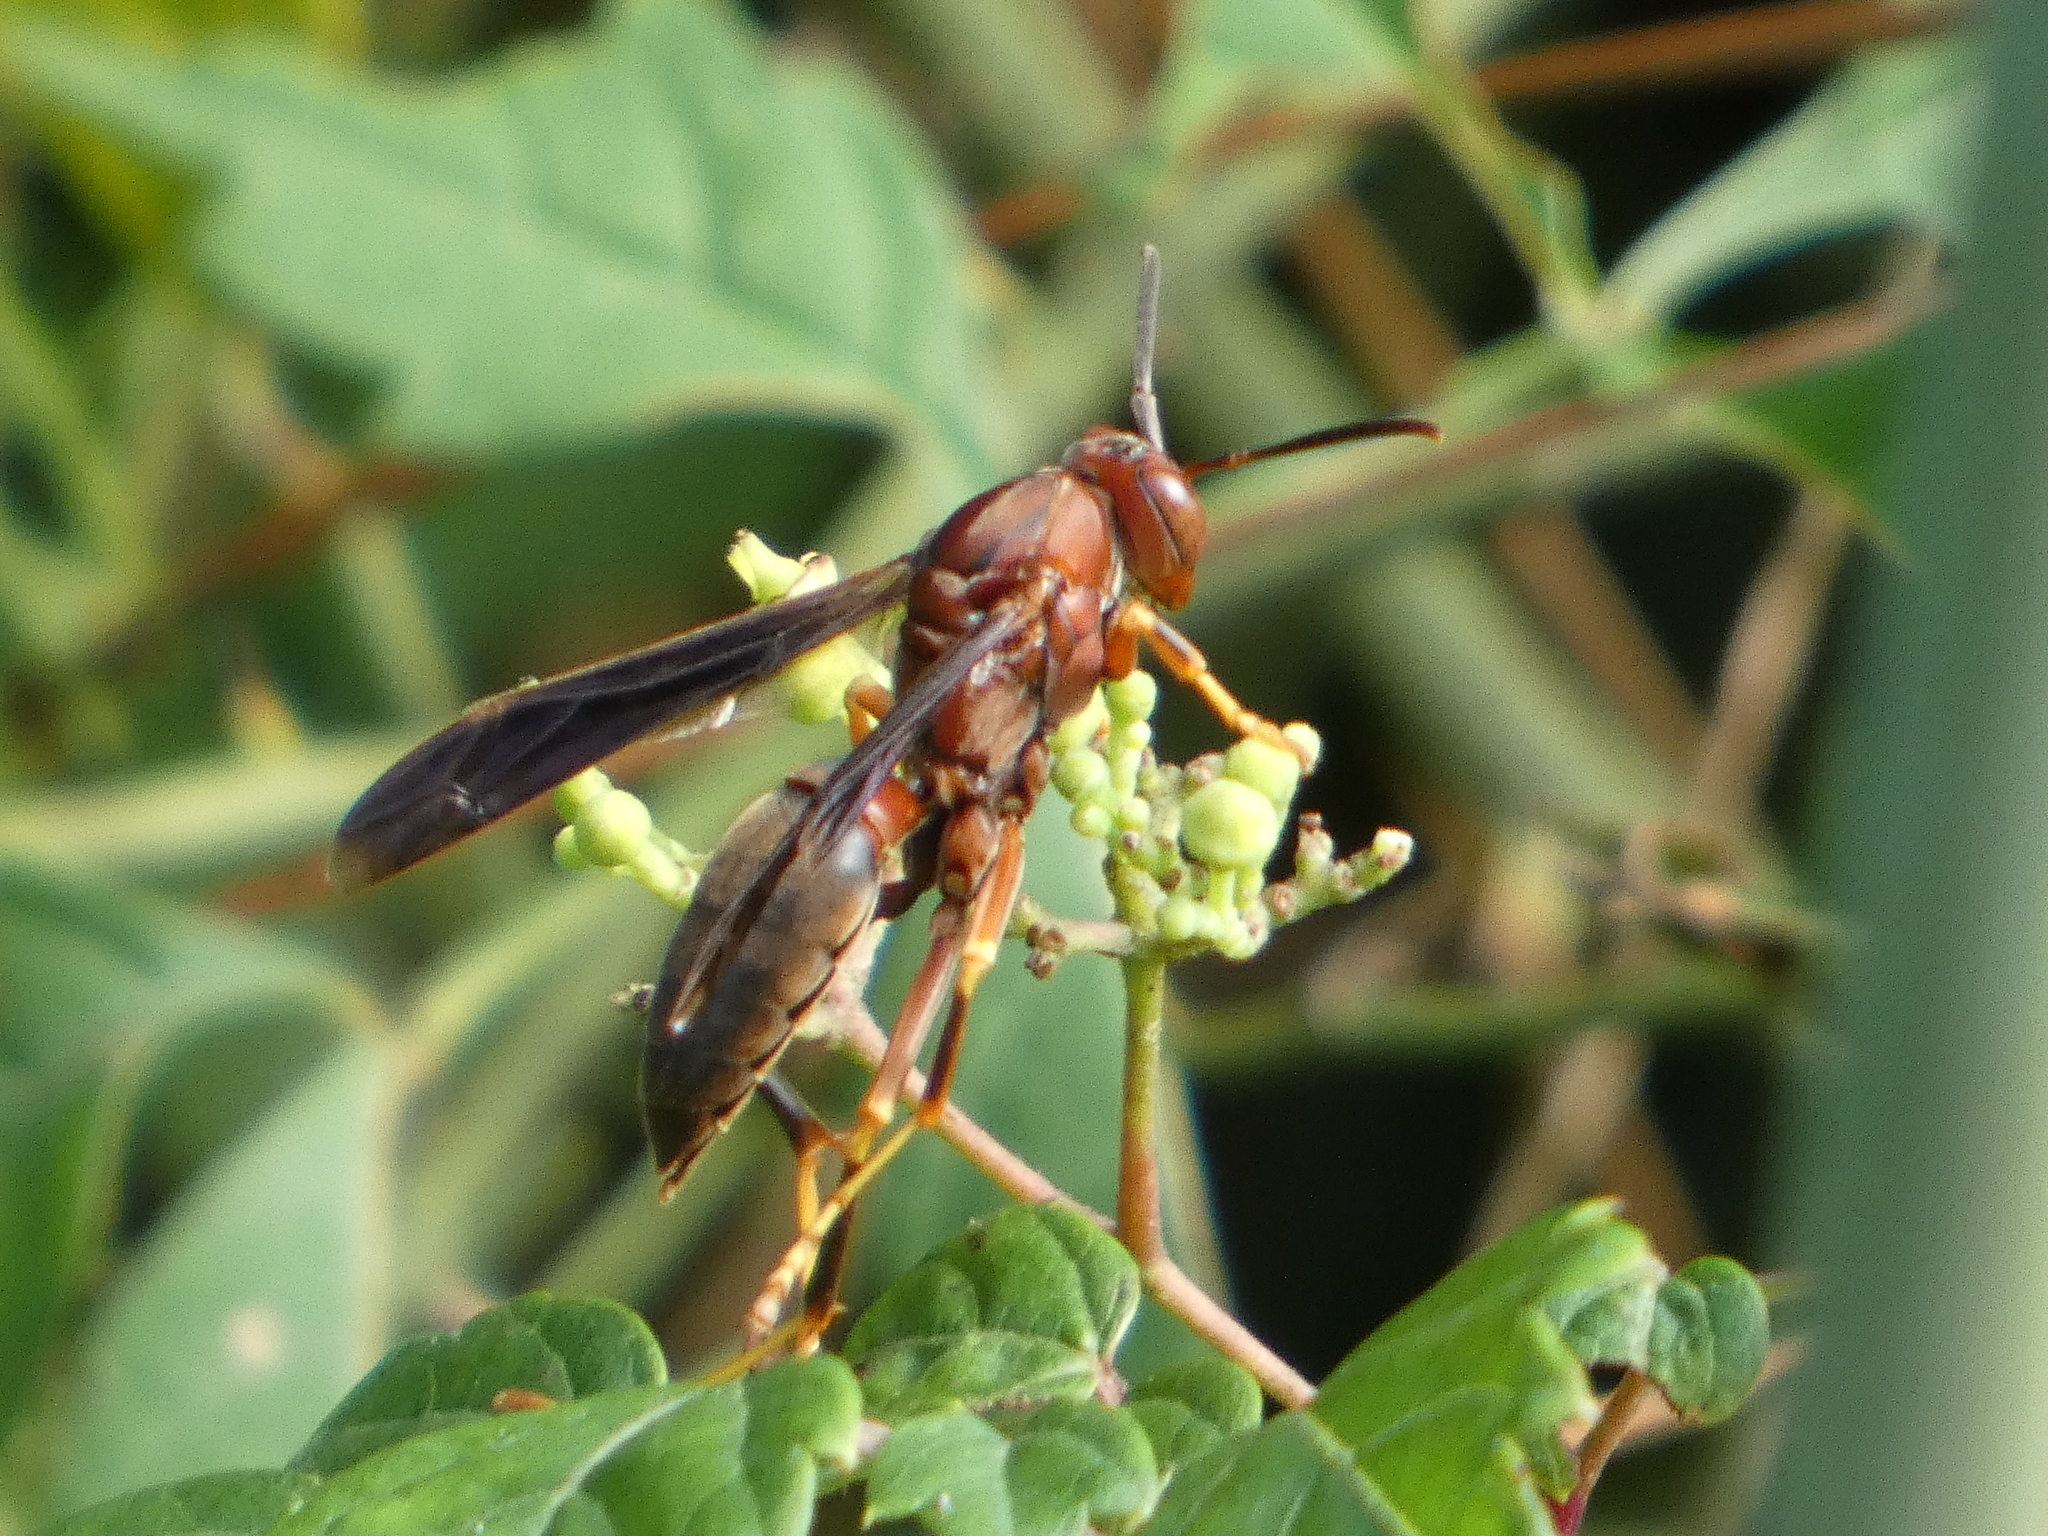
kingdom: Animalia
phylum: Arthropoda
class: Insecta
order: Hymenoptera
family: Eumenidae
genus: Polistes
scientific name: Polistes metricus
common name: Metric paper wasp
